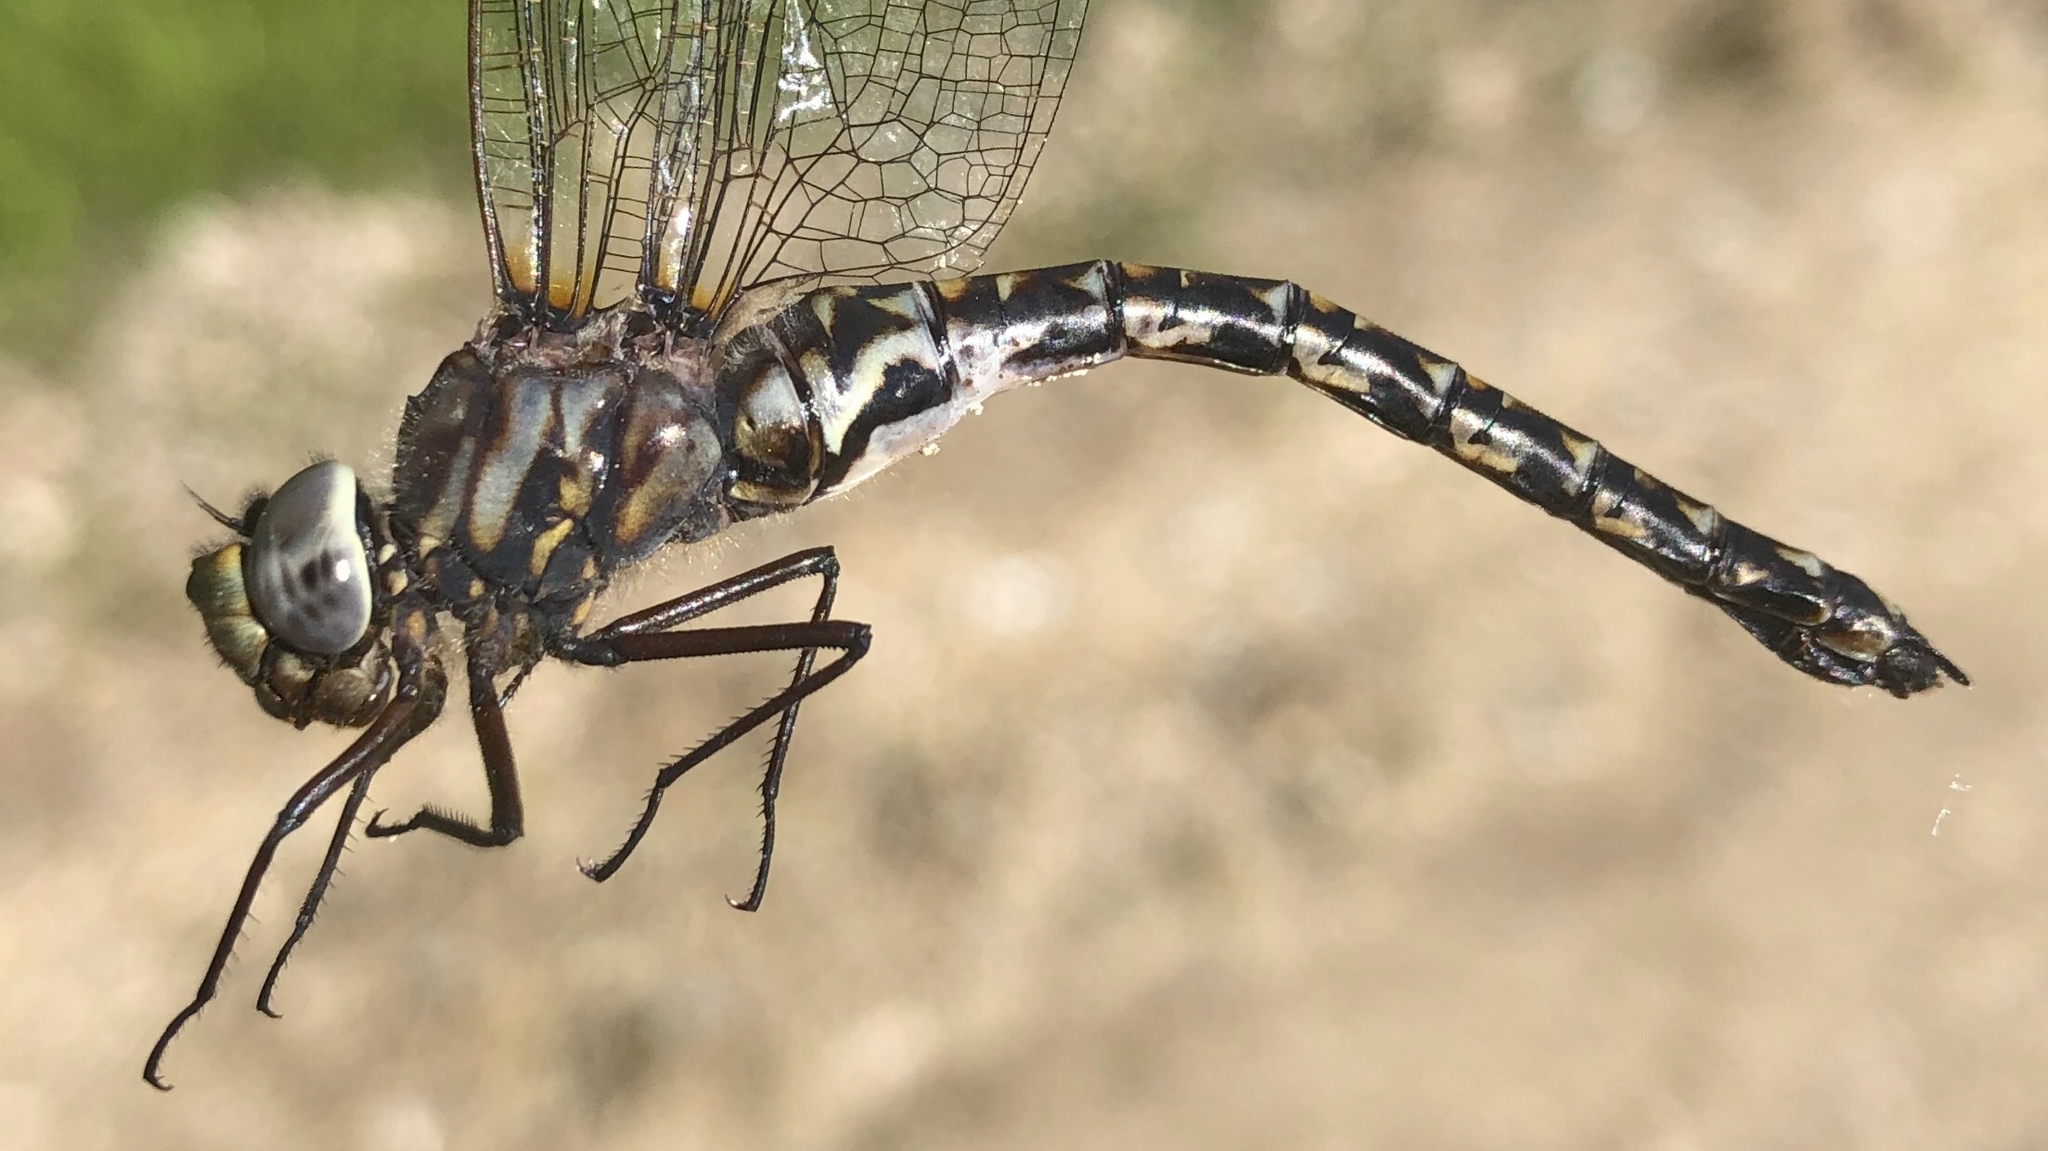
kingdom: Animalia
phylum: Arthropoda
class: Insecta
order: Odonata
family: Aeshnidae
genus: Gomphaeschna
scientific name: Gomphaeschna furcillata
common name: Harlequin darner
